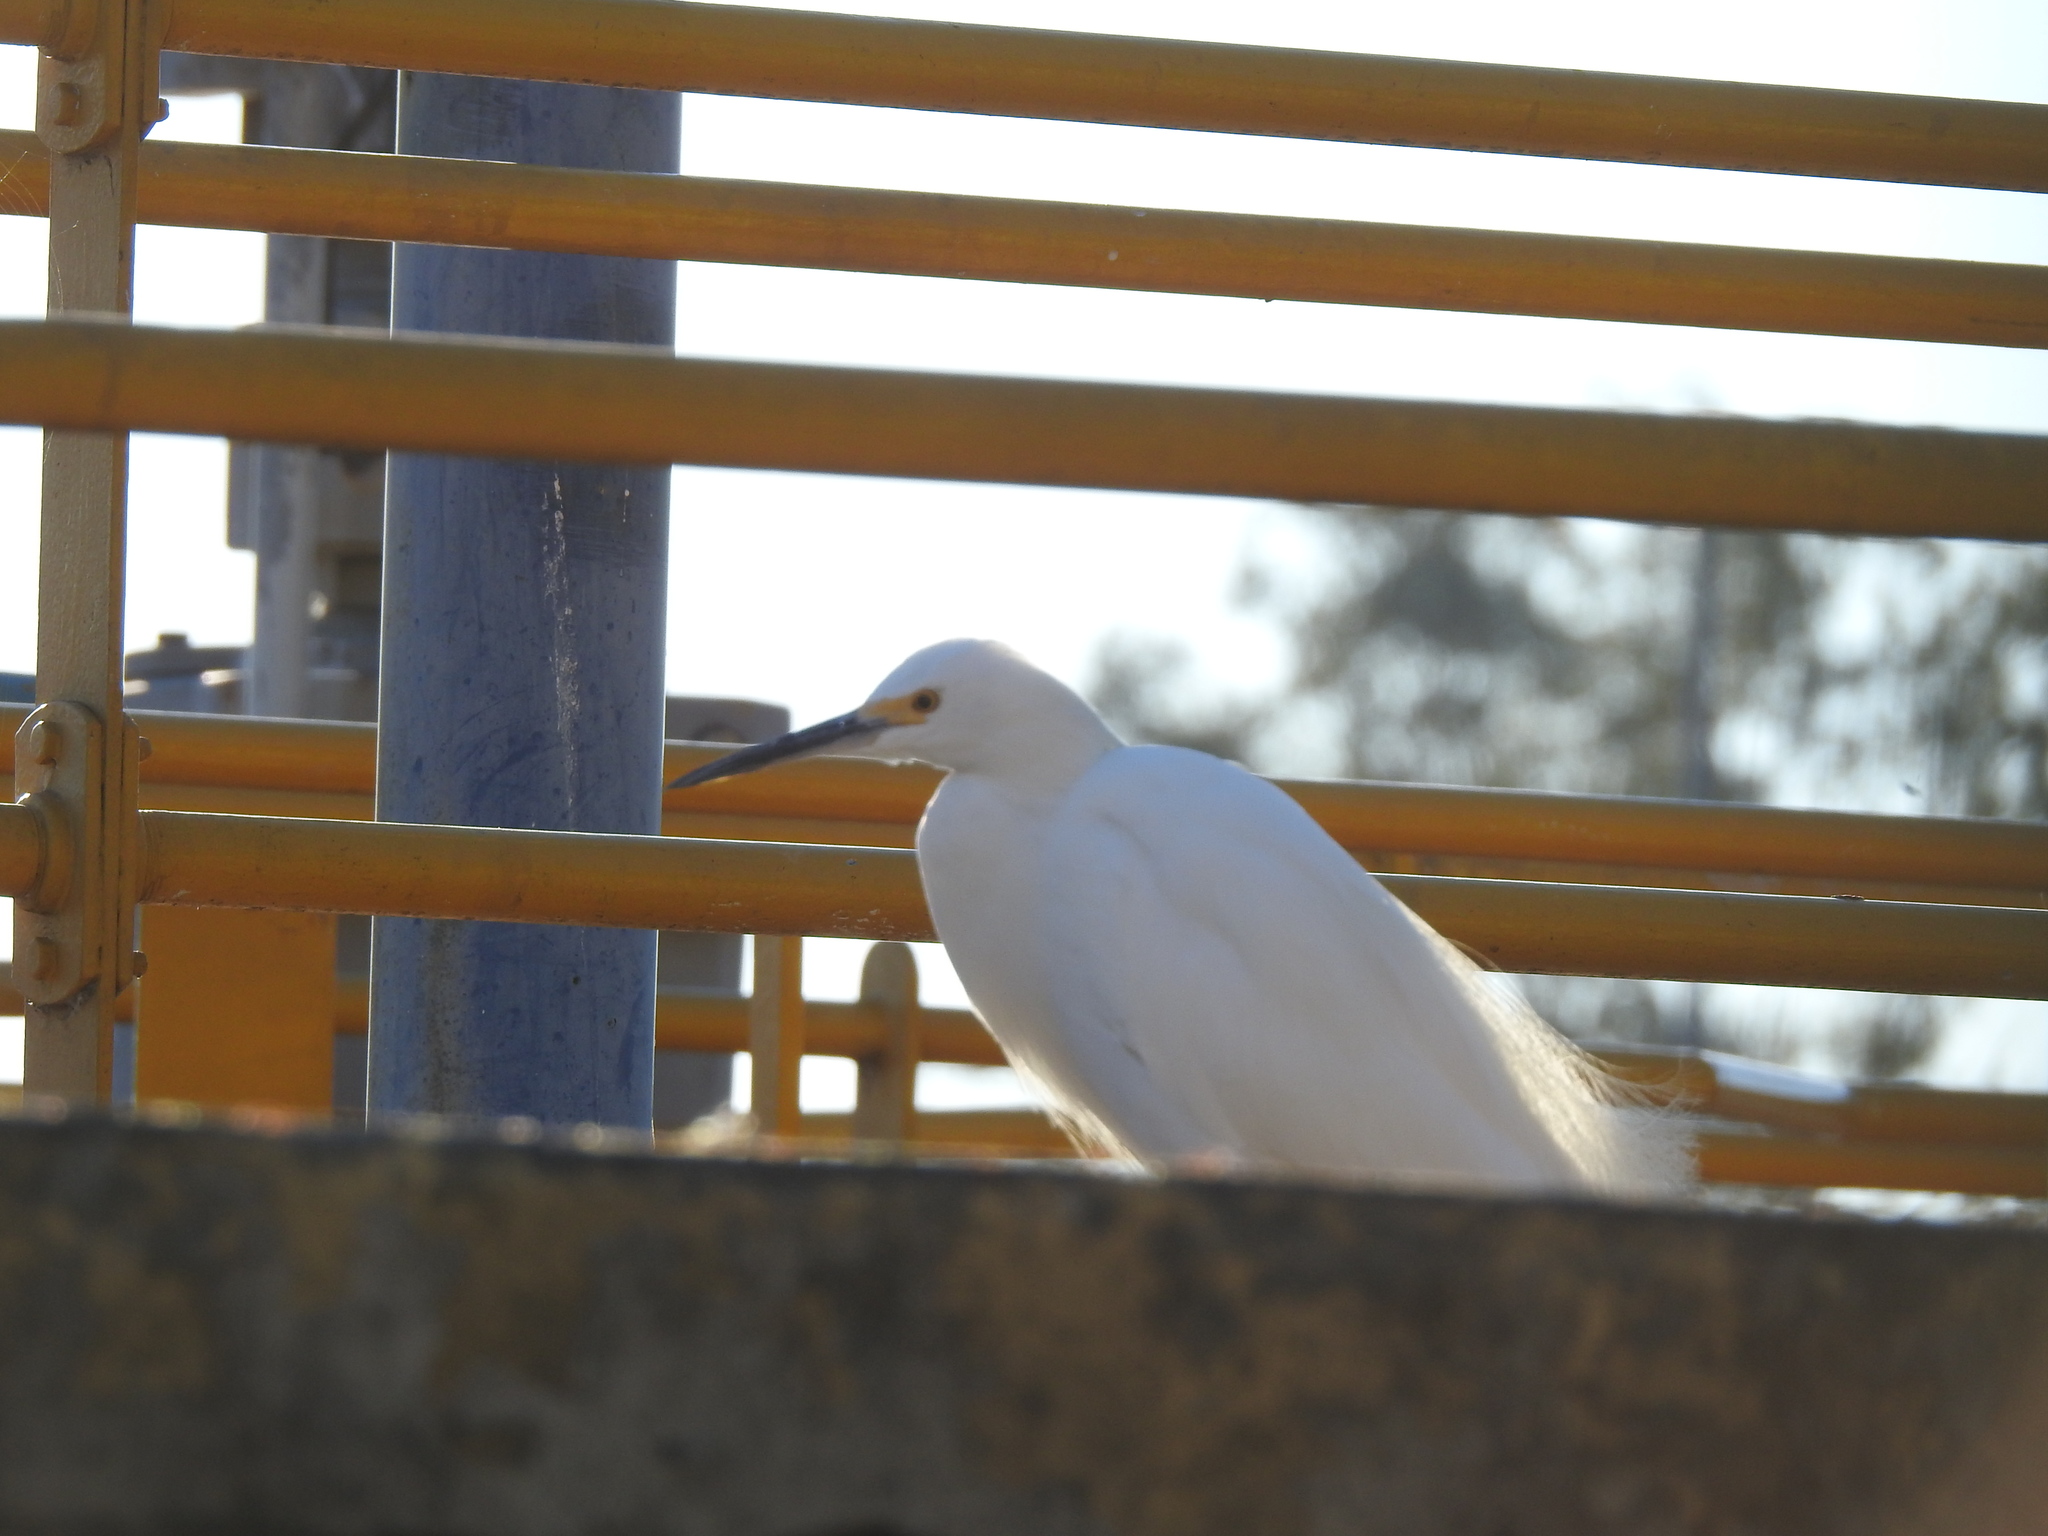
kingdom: Animalia
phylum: Chordata
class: Aves
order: Pelecaniformes
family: Ardeidae
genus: Egretta
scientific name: Egretta thula
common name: Snowy egret
